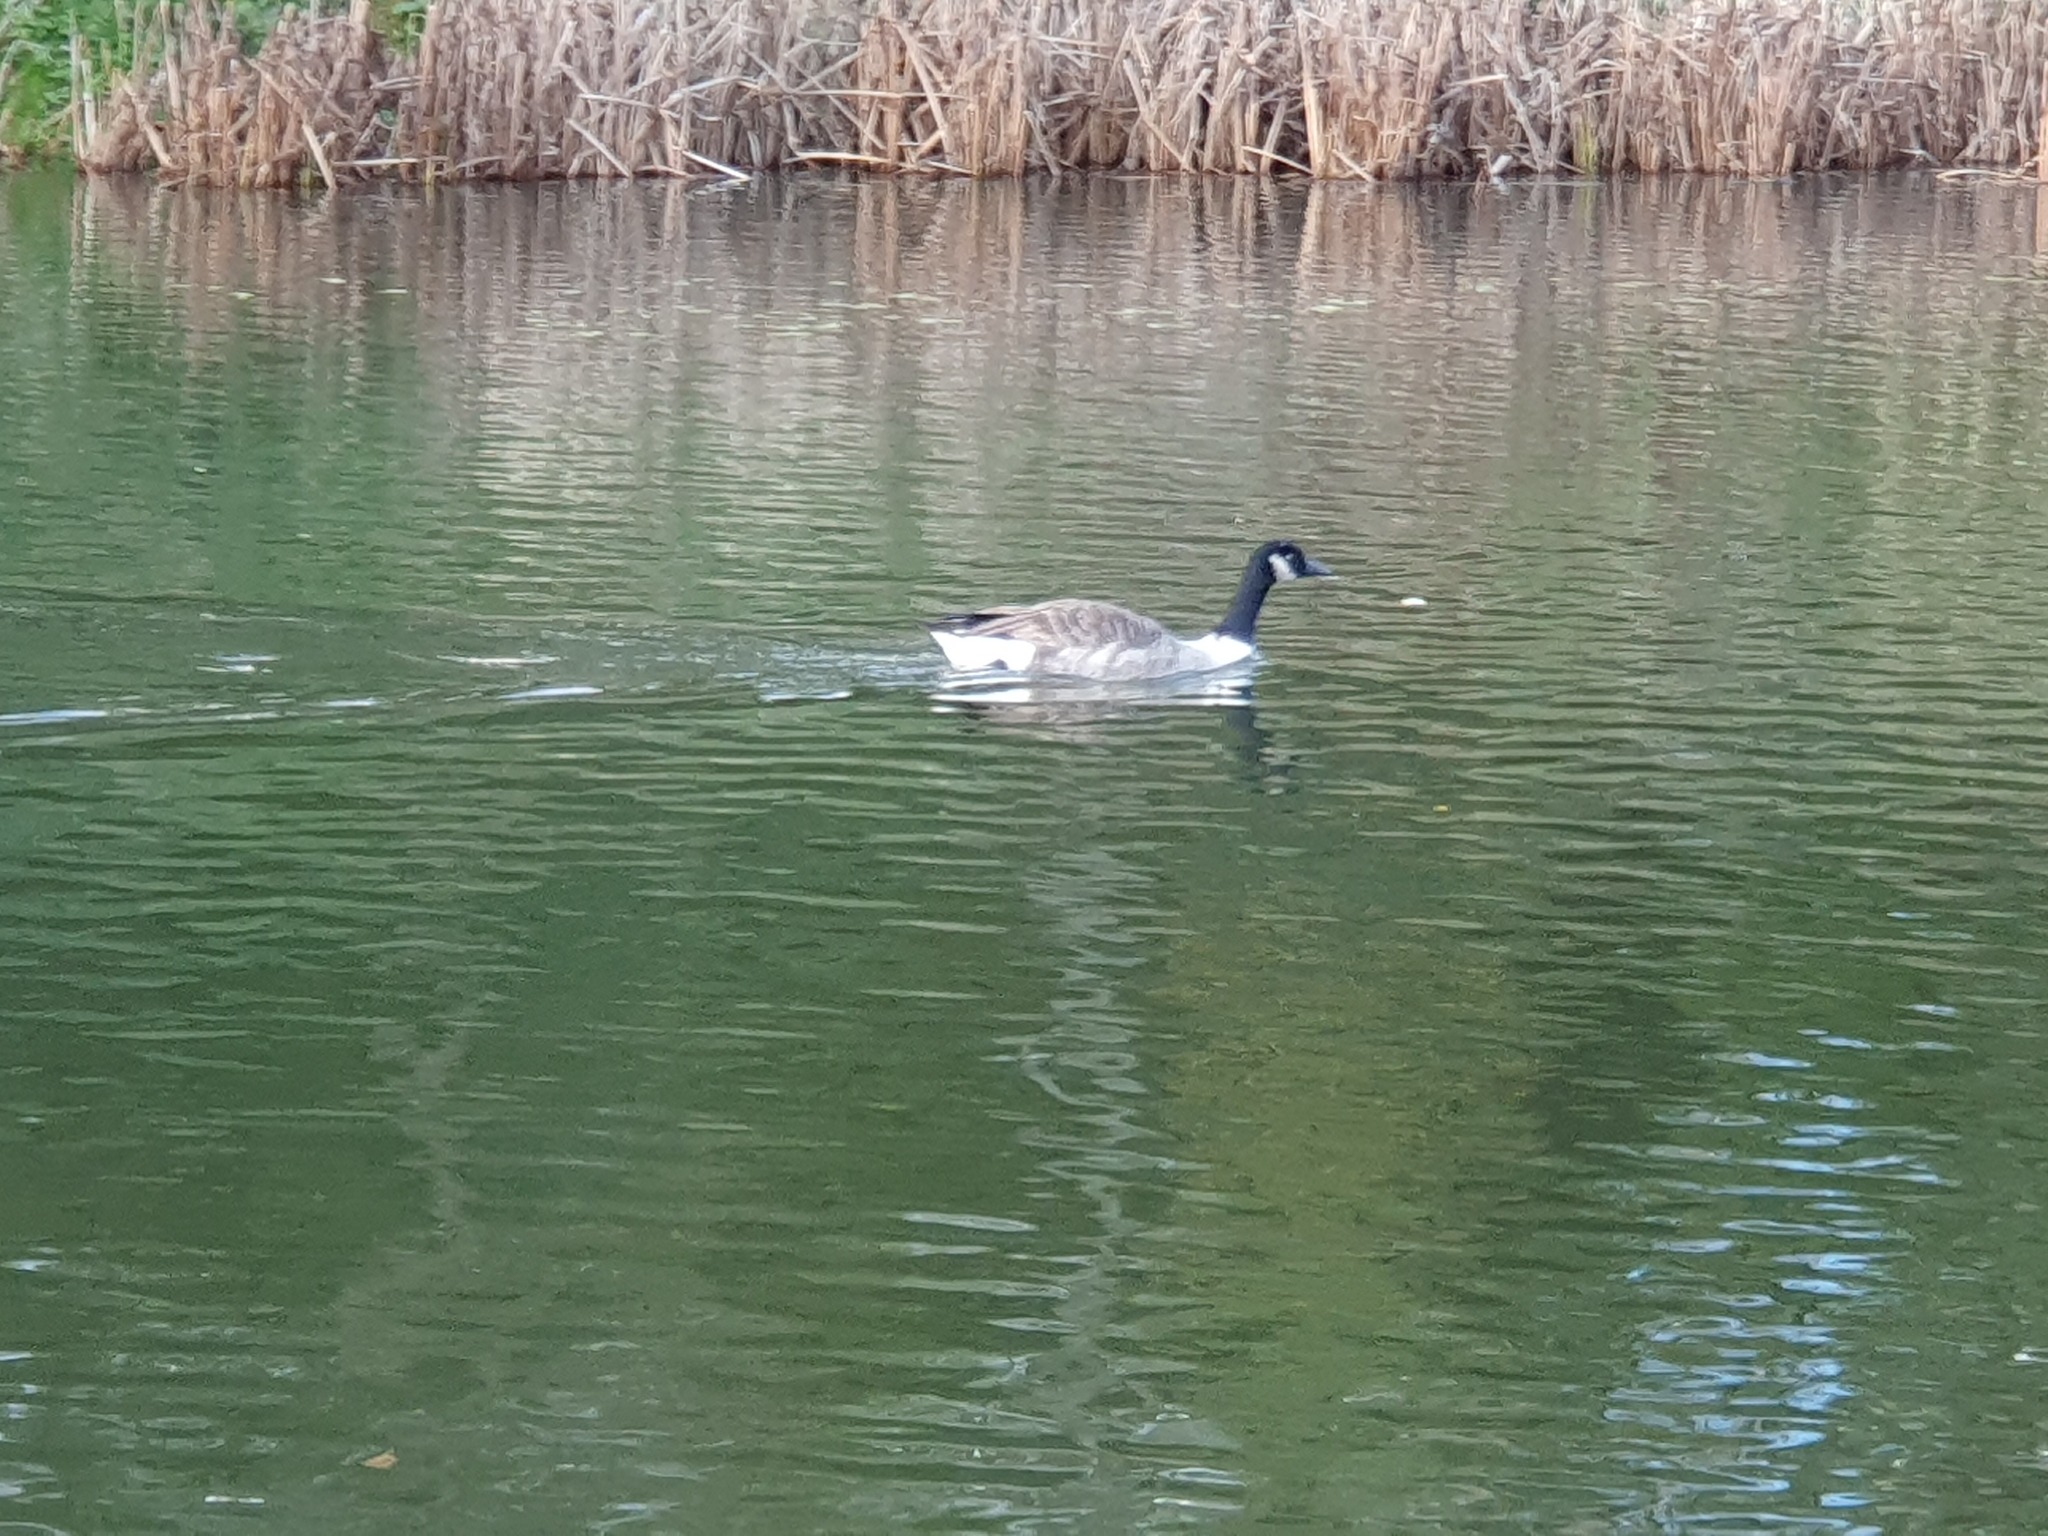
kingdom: Animalia
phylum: Chordata
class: Aves
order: Anseriformes
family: Anatidae
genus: Branta
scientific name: Branta canadensis
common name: Canada goose
